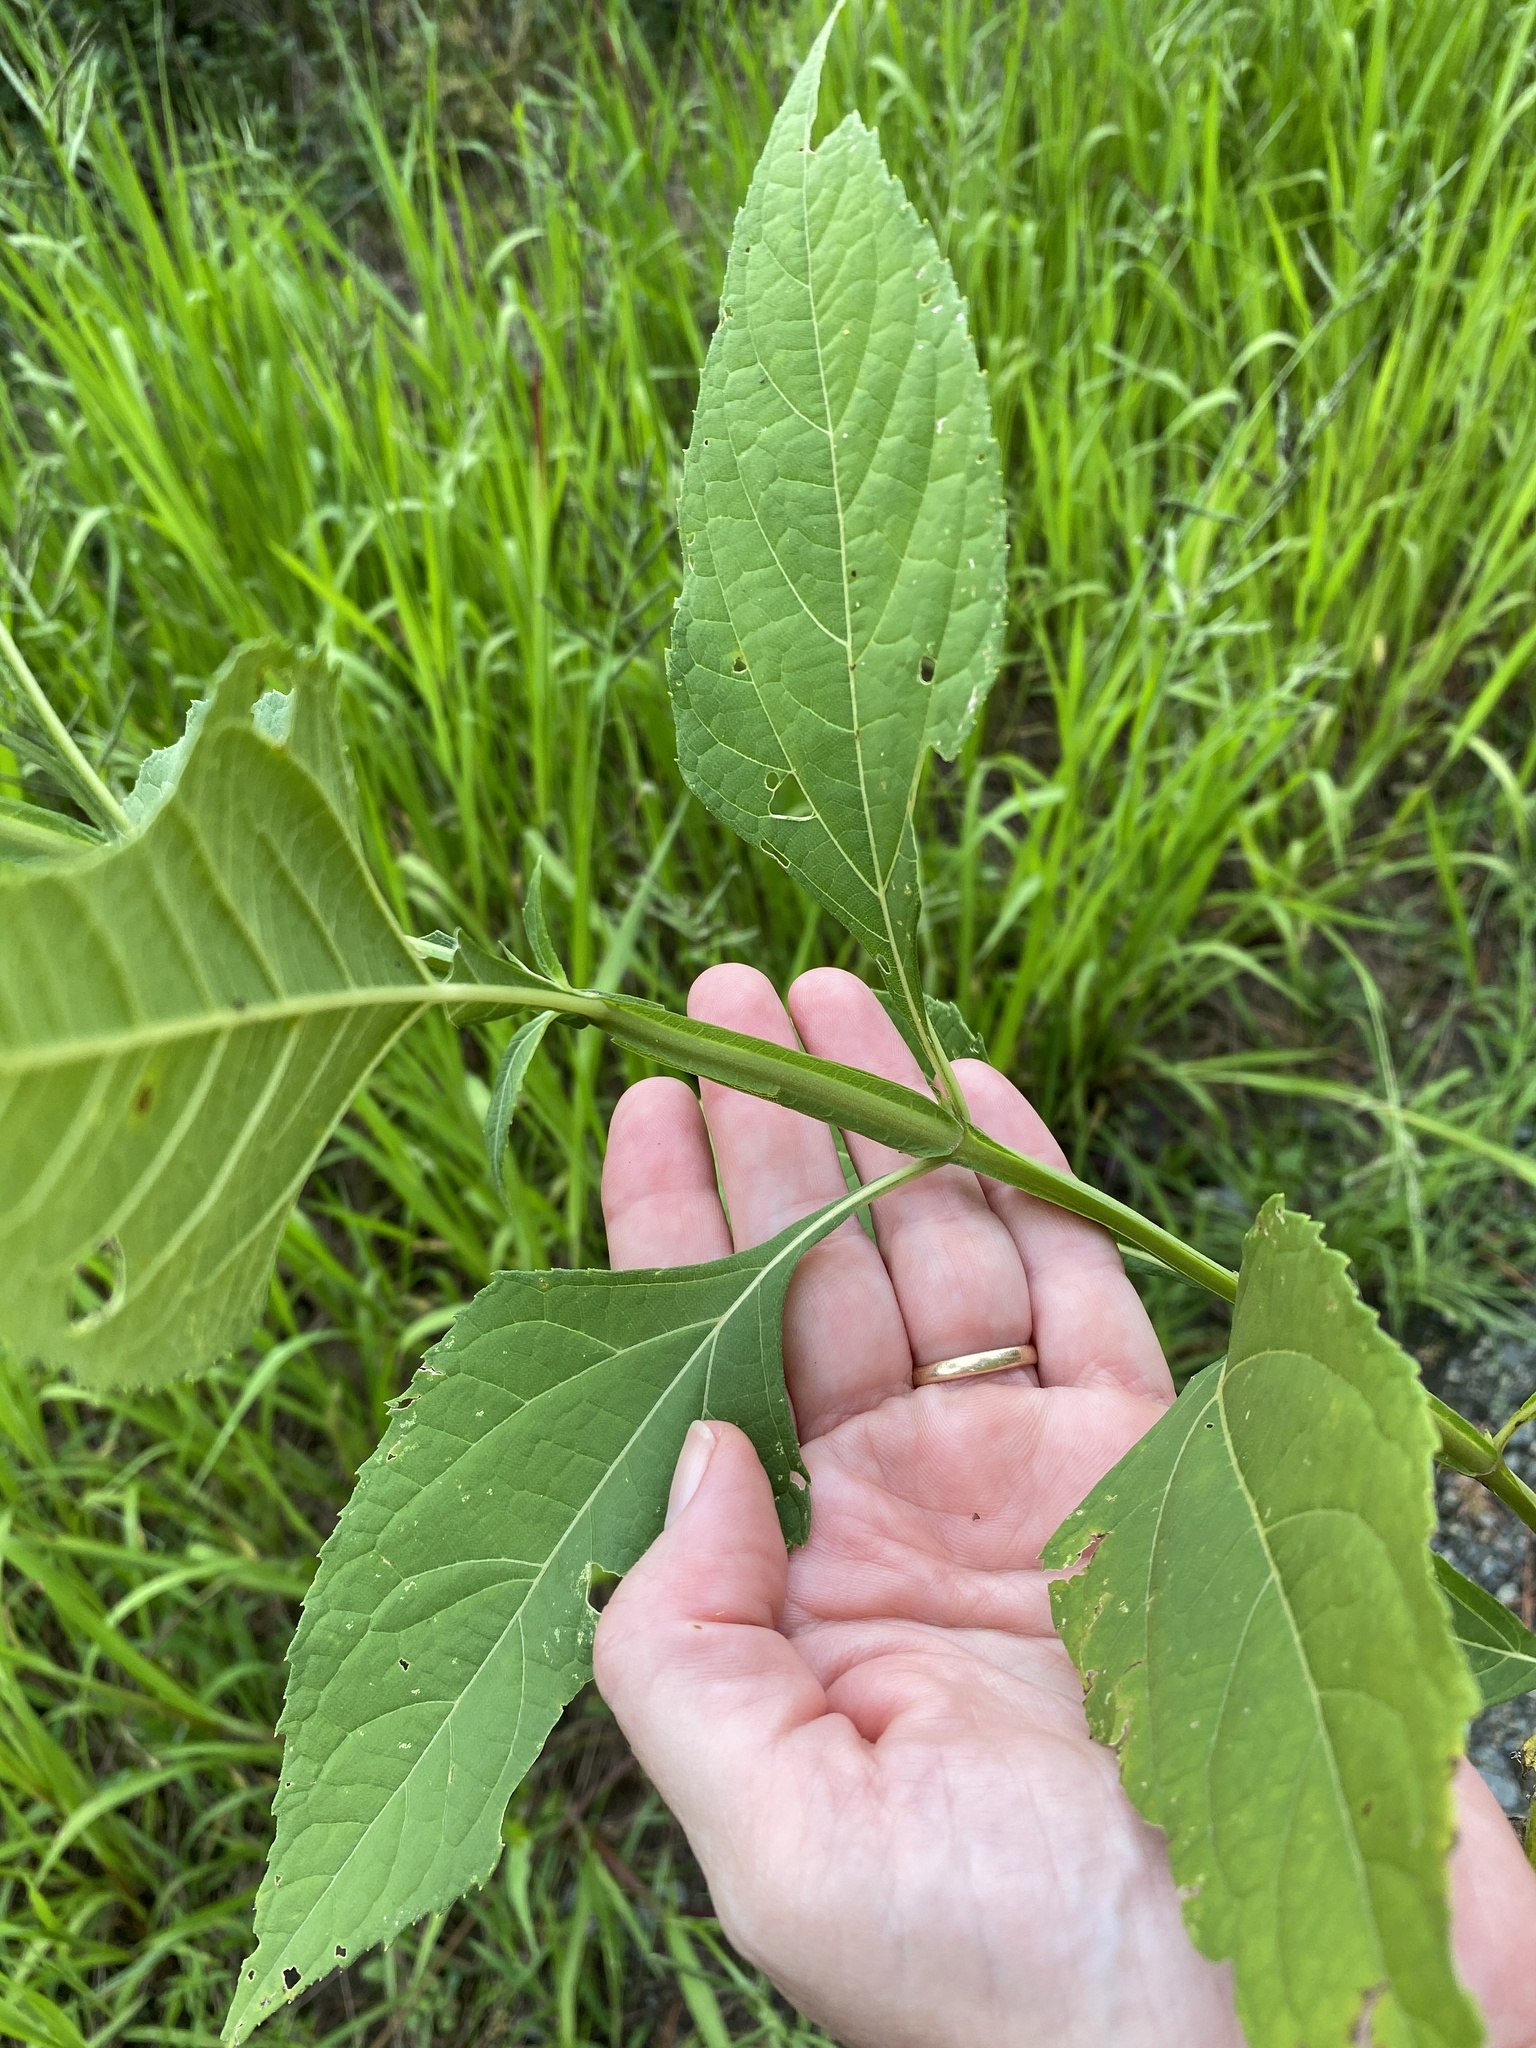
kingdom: Plantae
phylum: Tracheophyta
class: Magnoliopsida
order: Asterales
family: Asteraceae
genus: Verbesina
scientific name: Verbesina occidentalis
